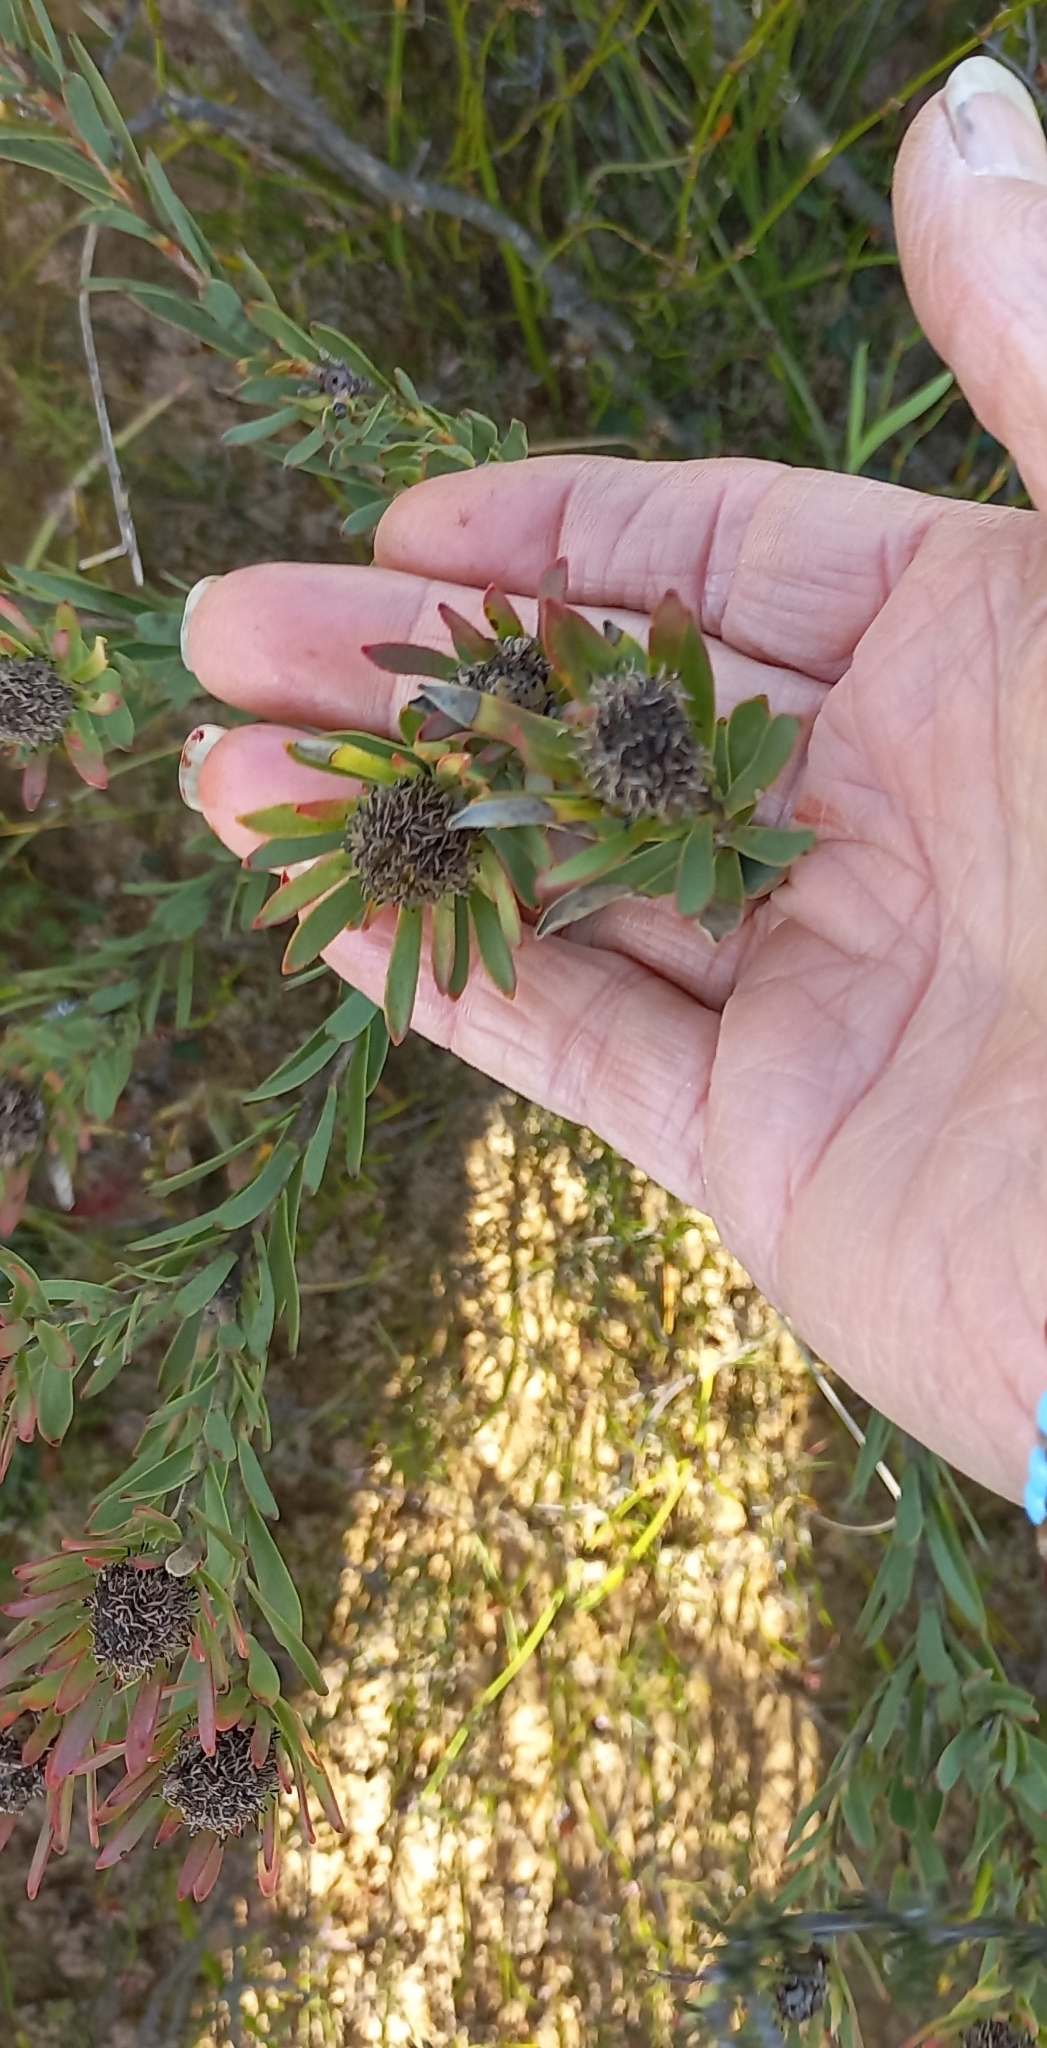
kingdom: Plantae
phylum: Tracheophyta
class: Magnoliopsida
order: Proteales
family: Proteaceae
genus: Leucadendron
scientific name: Leucadendron lanigerum
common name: Shale conebush
